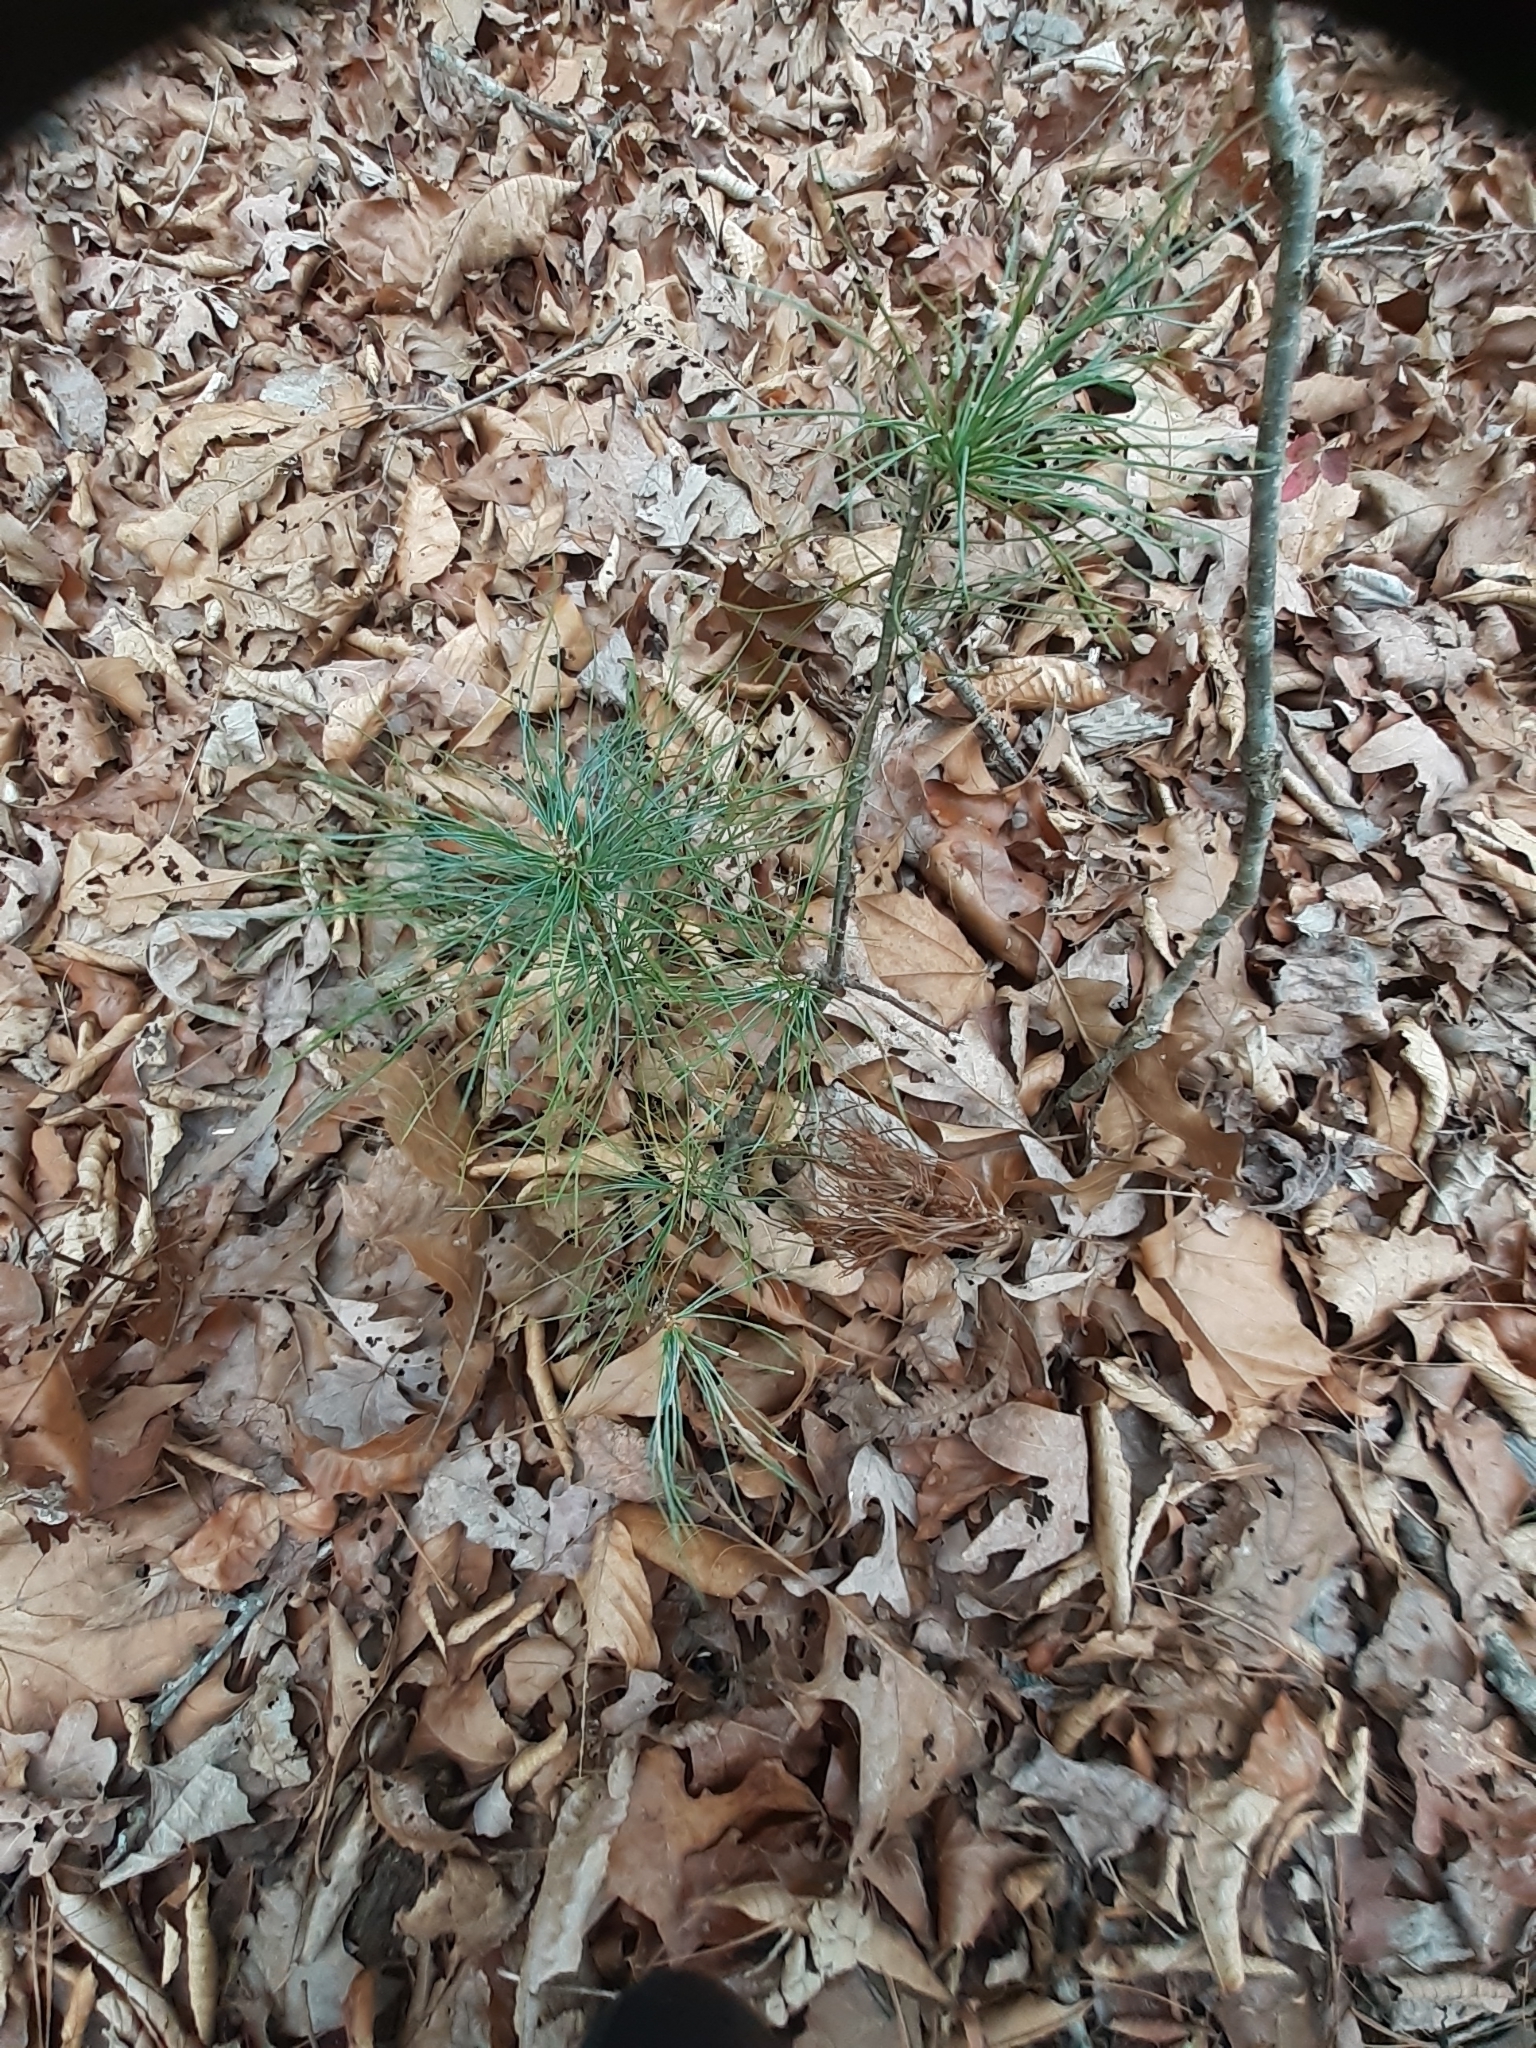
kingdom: Plantae
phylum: Tracheophyta
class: Pinopsida
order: Pinales
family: Pinaceae
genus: Pinus
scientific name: Pinus strobus
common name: Weymouth pine
